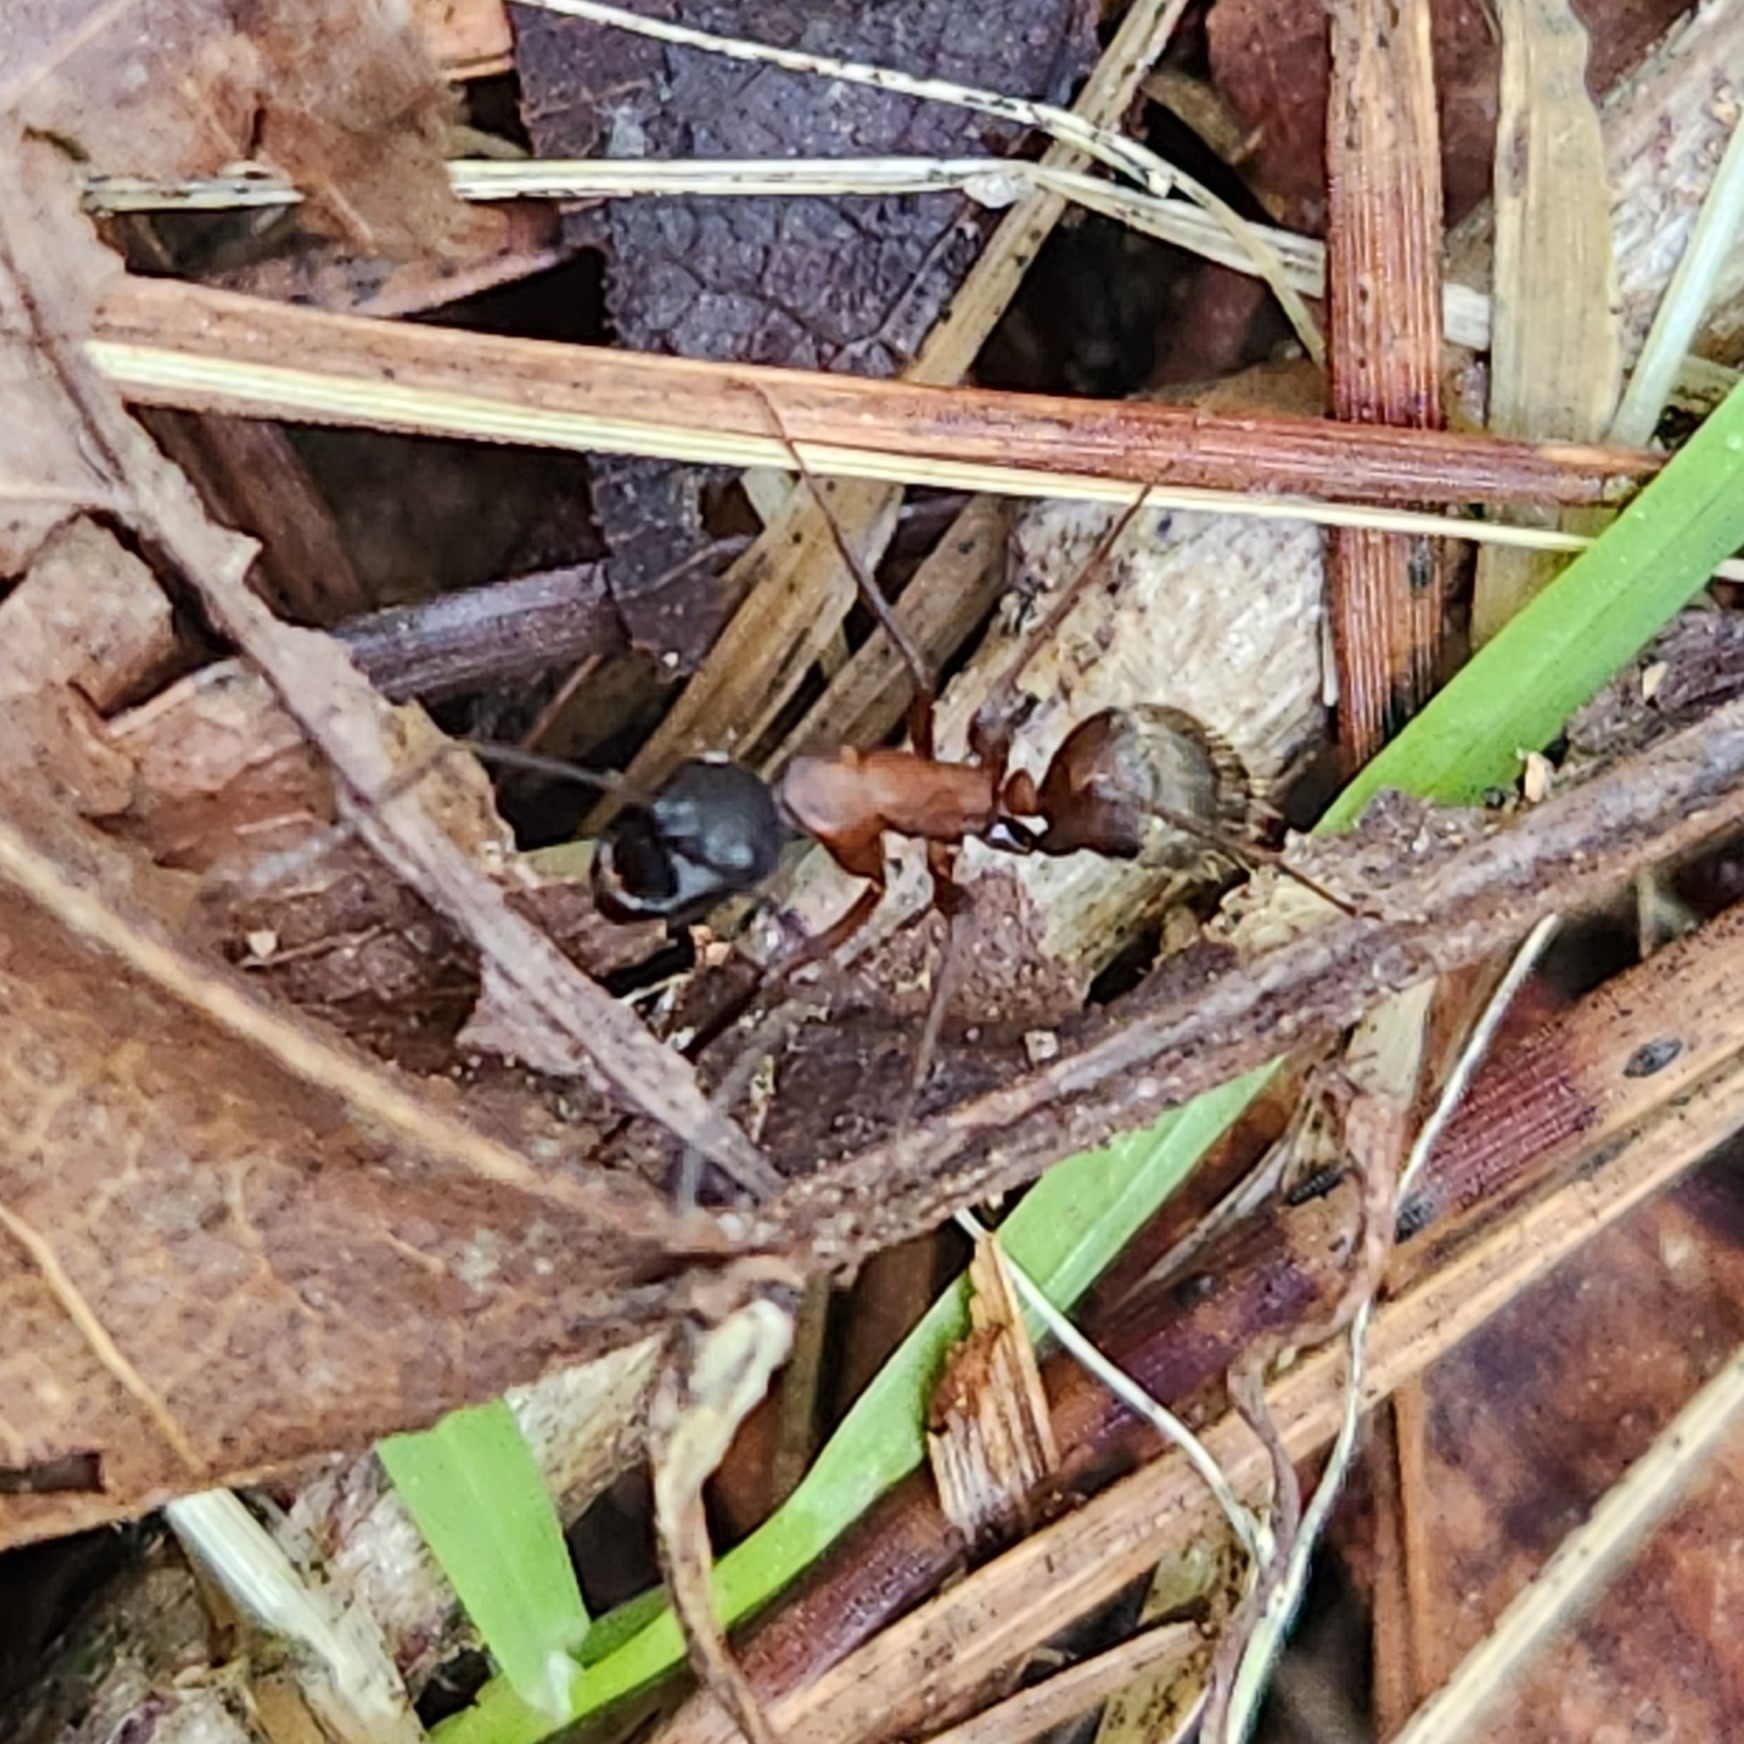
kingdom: Animalia
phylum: Arthropoda
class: Insecta
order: Hymenoptera
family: Formicidae
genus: Camponotus
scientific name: Camponotus chromaiodes
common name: Red carpenter ant
